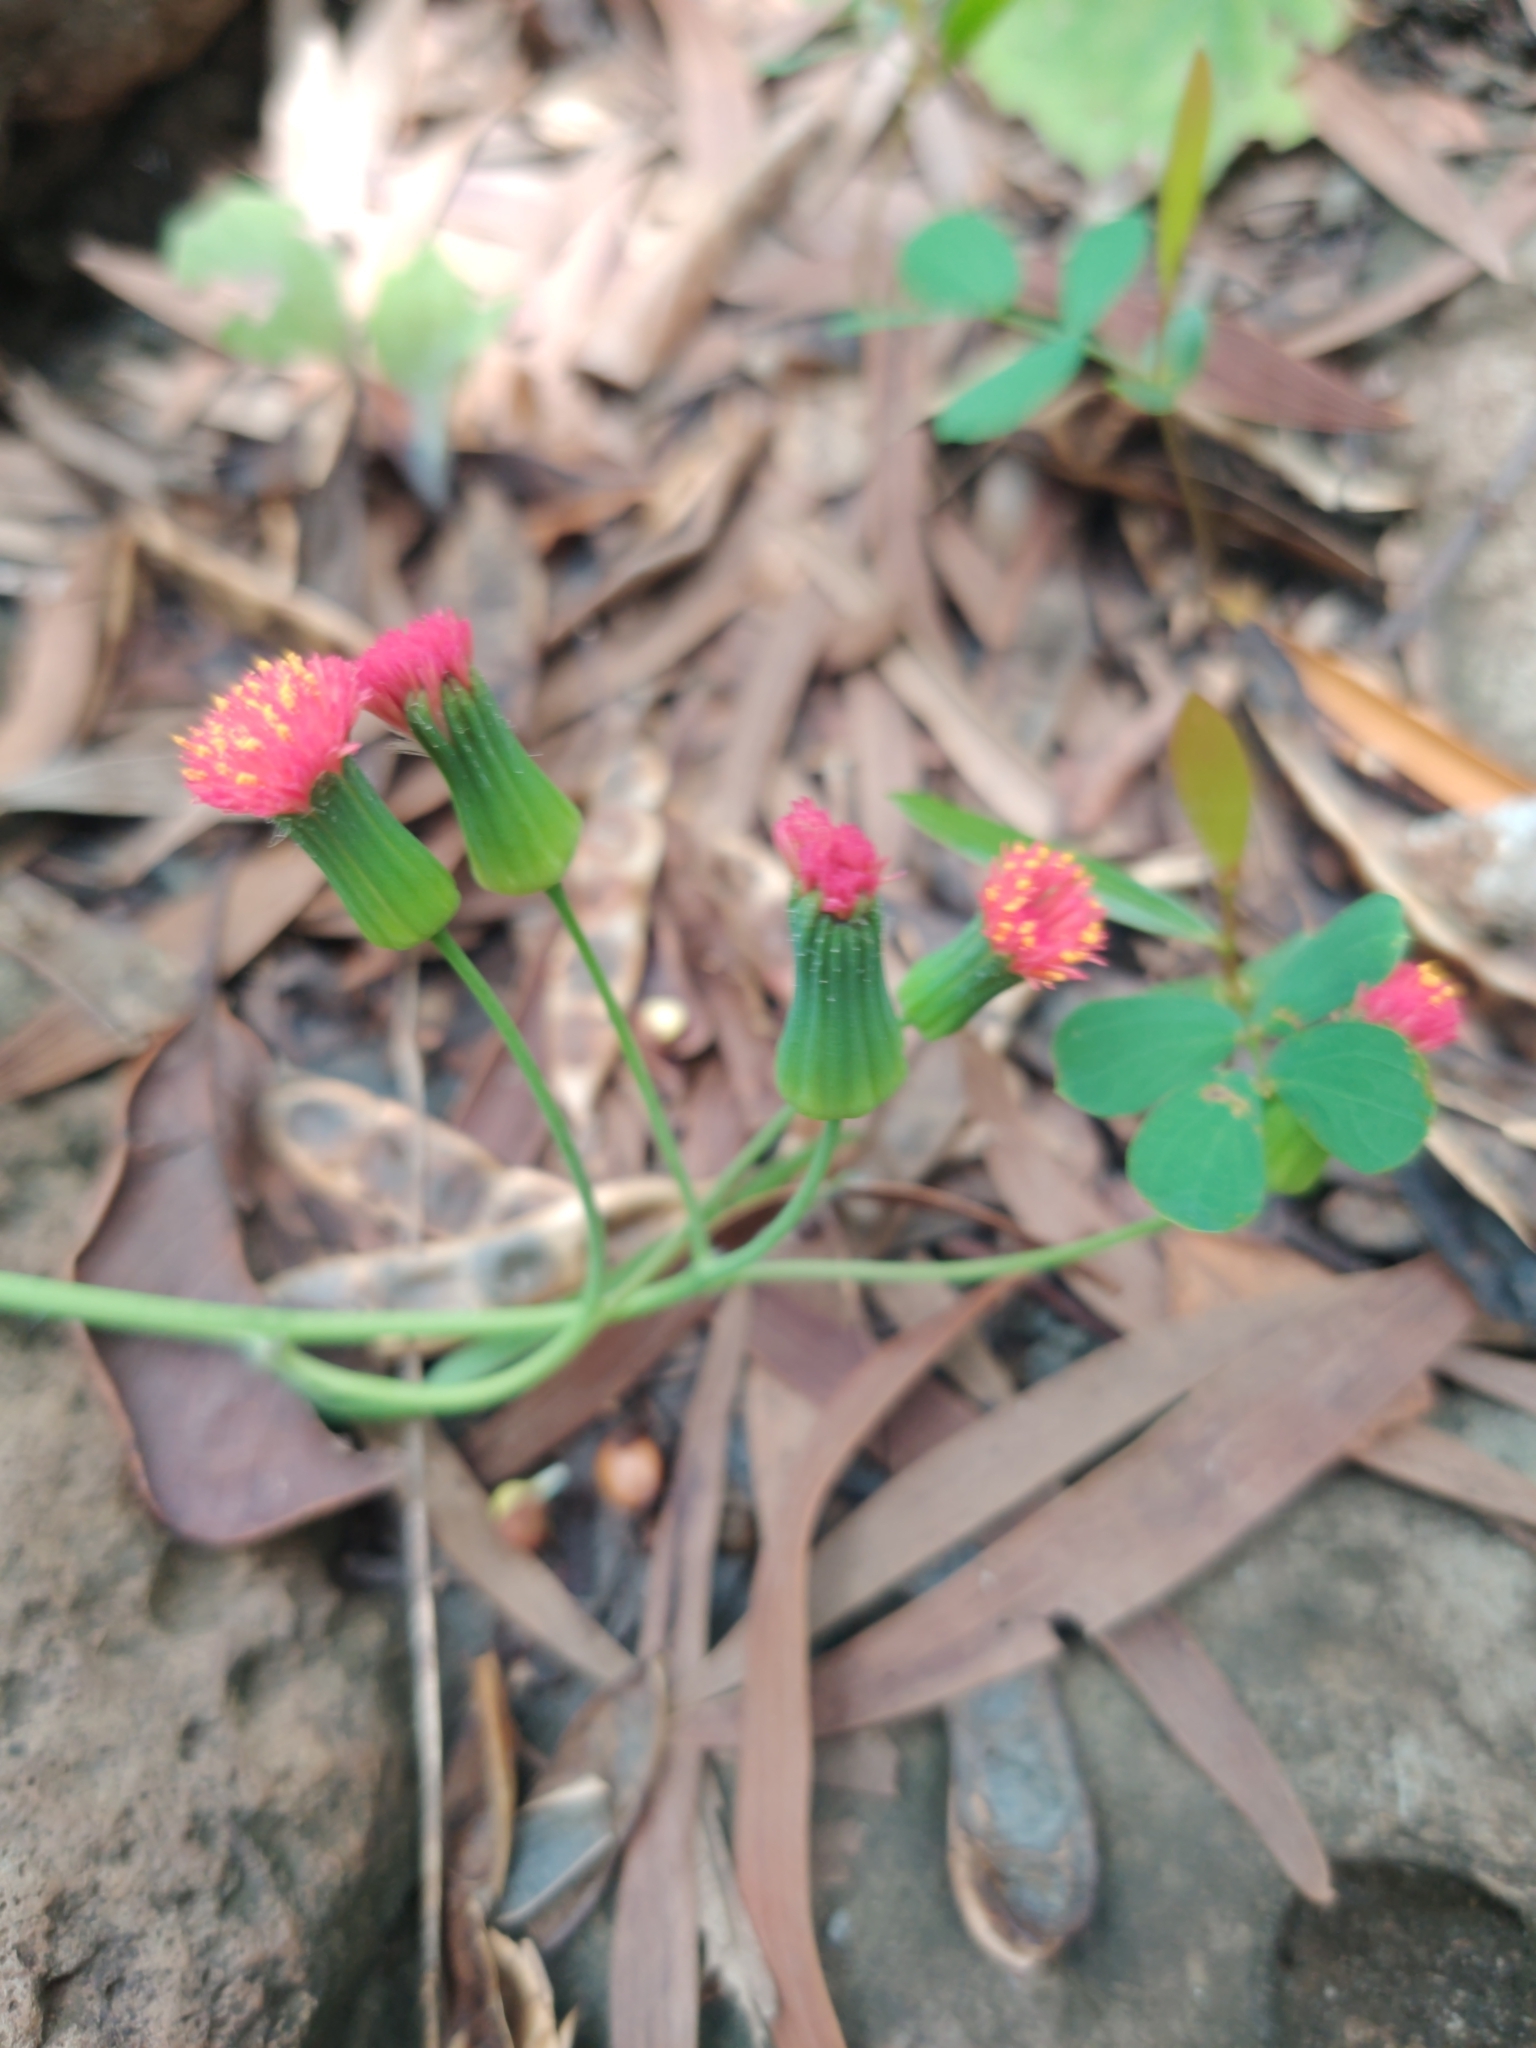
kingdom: Plantae
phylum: Tracheophyta
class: Magnoliopsida
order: Asterales
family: Asteraceae
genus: Emilia
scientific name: Emilia fosbergii
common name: Florida tasselflower
